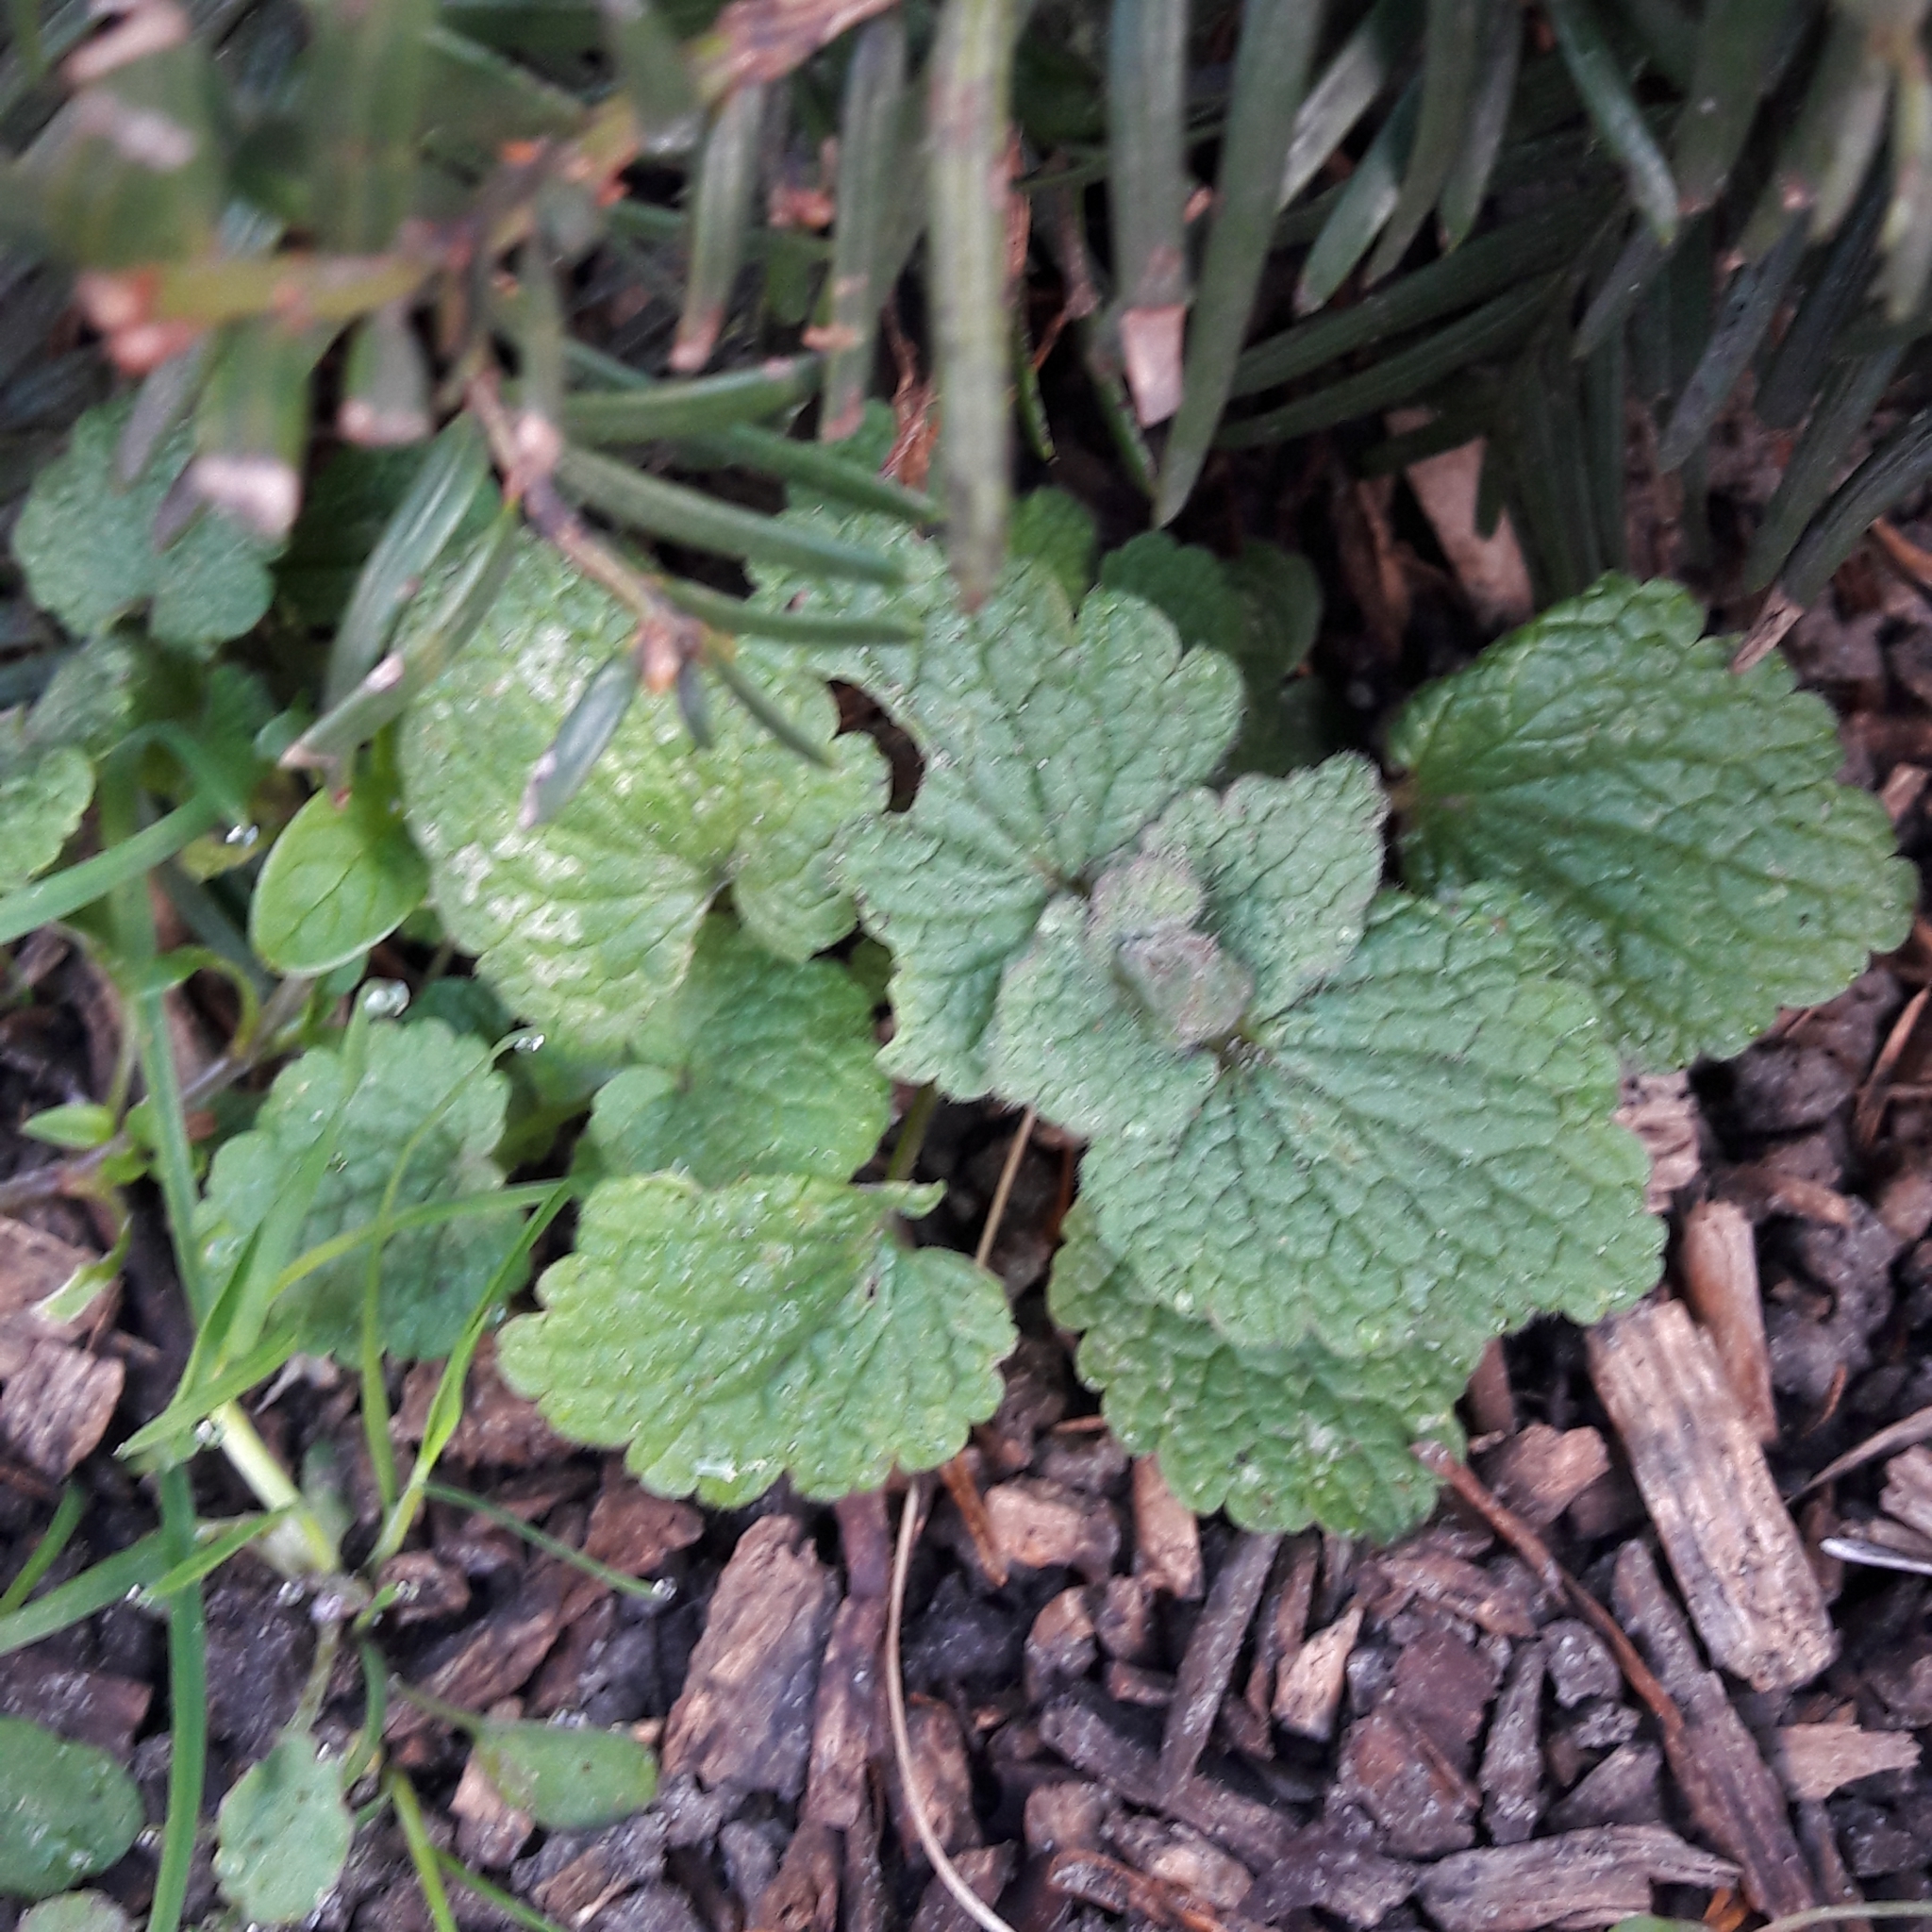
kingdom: Plantae
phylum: Tracheophyta
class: Magnoliopsida
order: Lamiales
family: Lamiaceae
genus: Lamium
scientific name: Lamium purpureum
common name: Red dead-nettle
